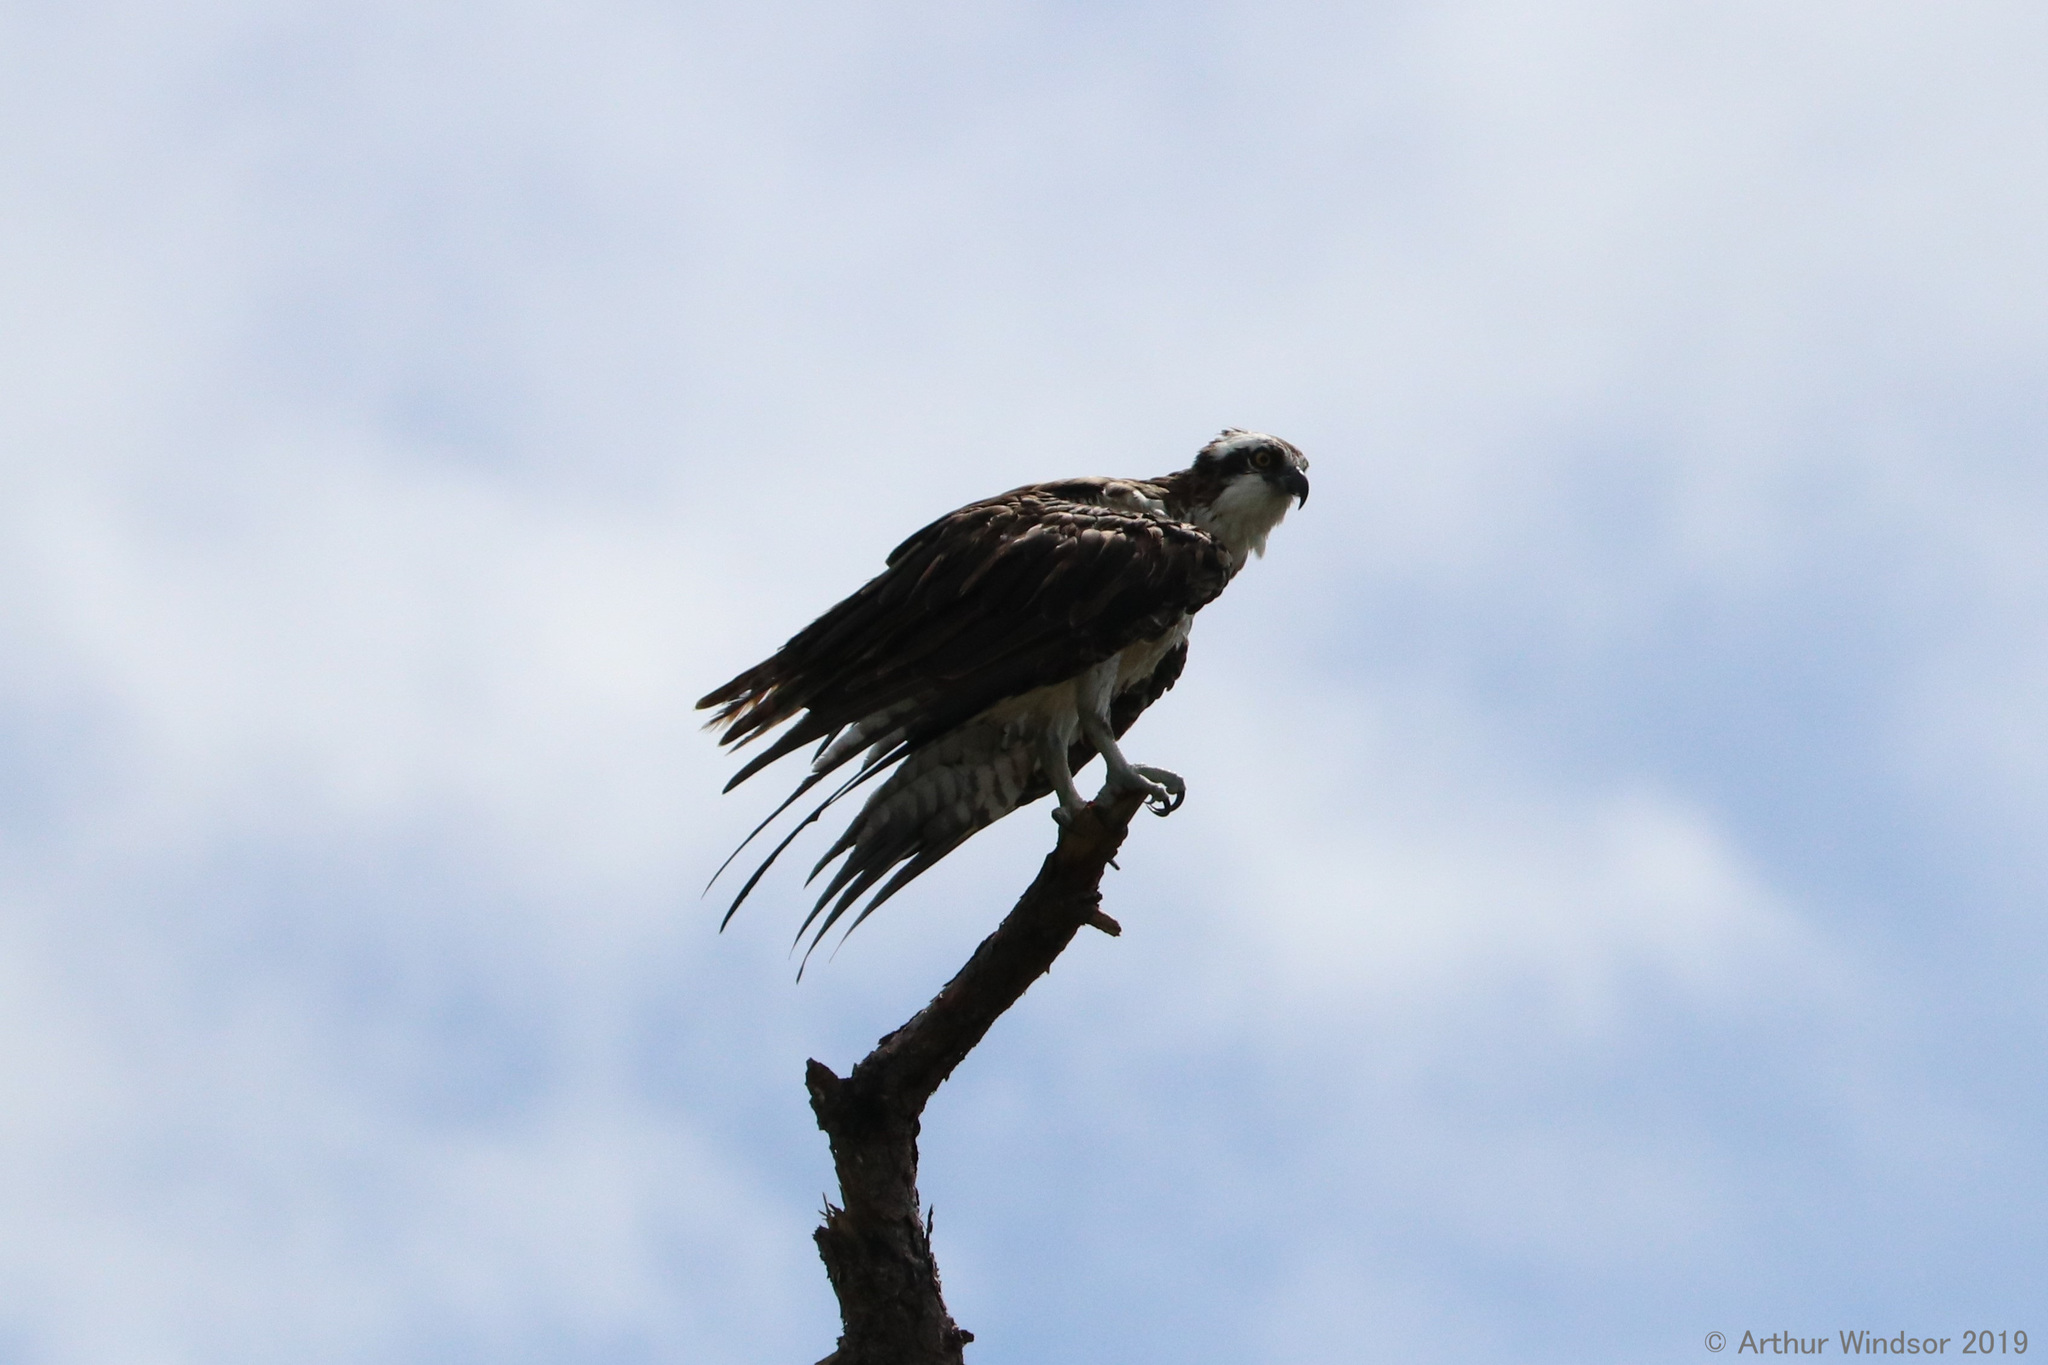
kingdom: Animalia
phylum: Chordata
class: Aves
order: Accipitriformes
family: Pandionidae
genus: Pandion
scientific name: Pandion haliaetus
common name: Osprey
